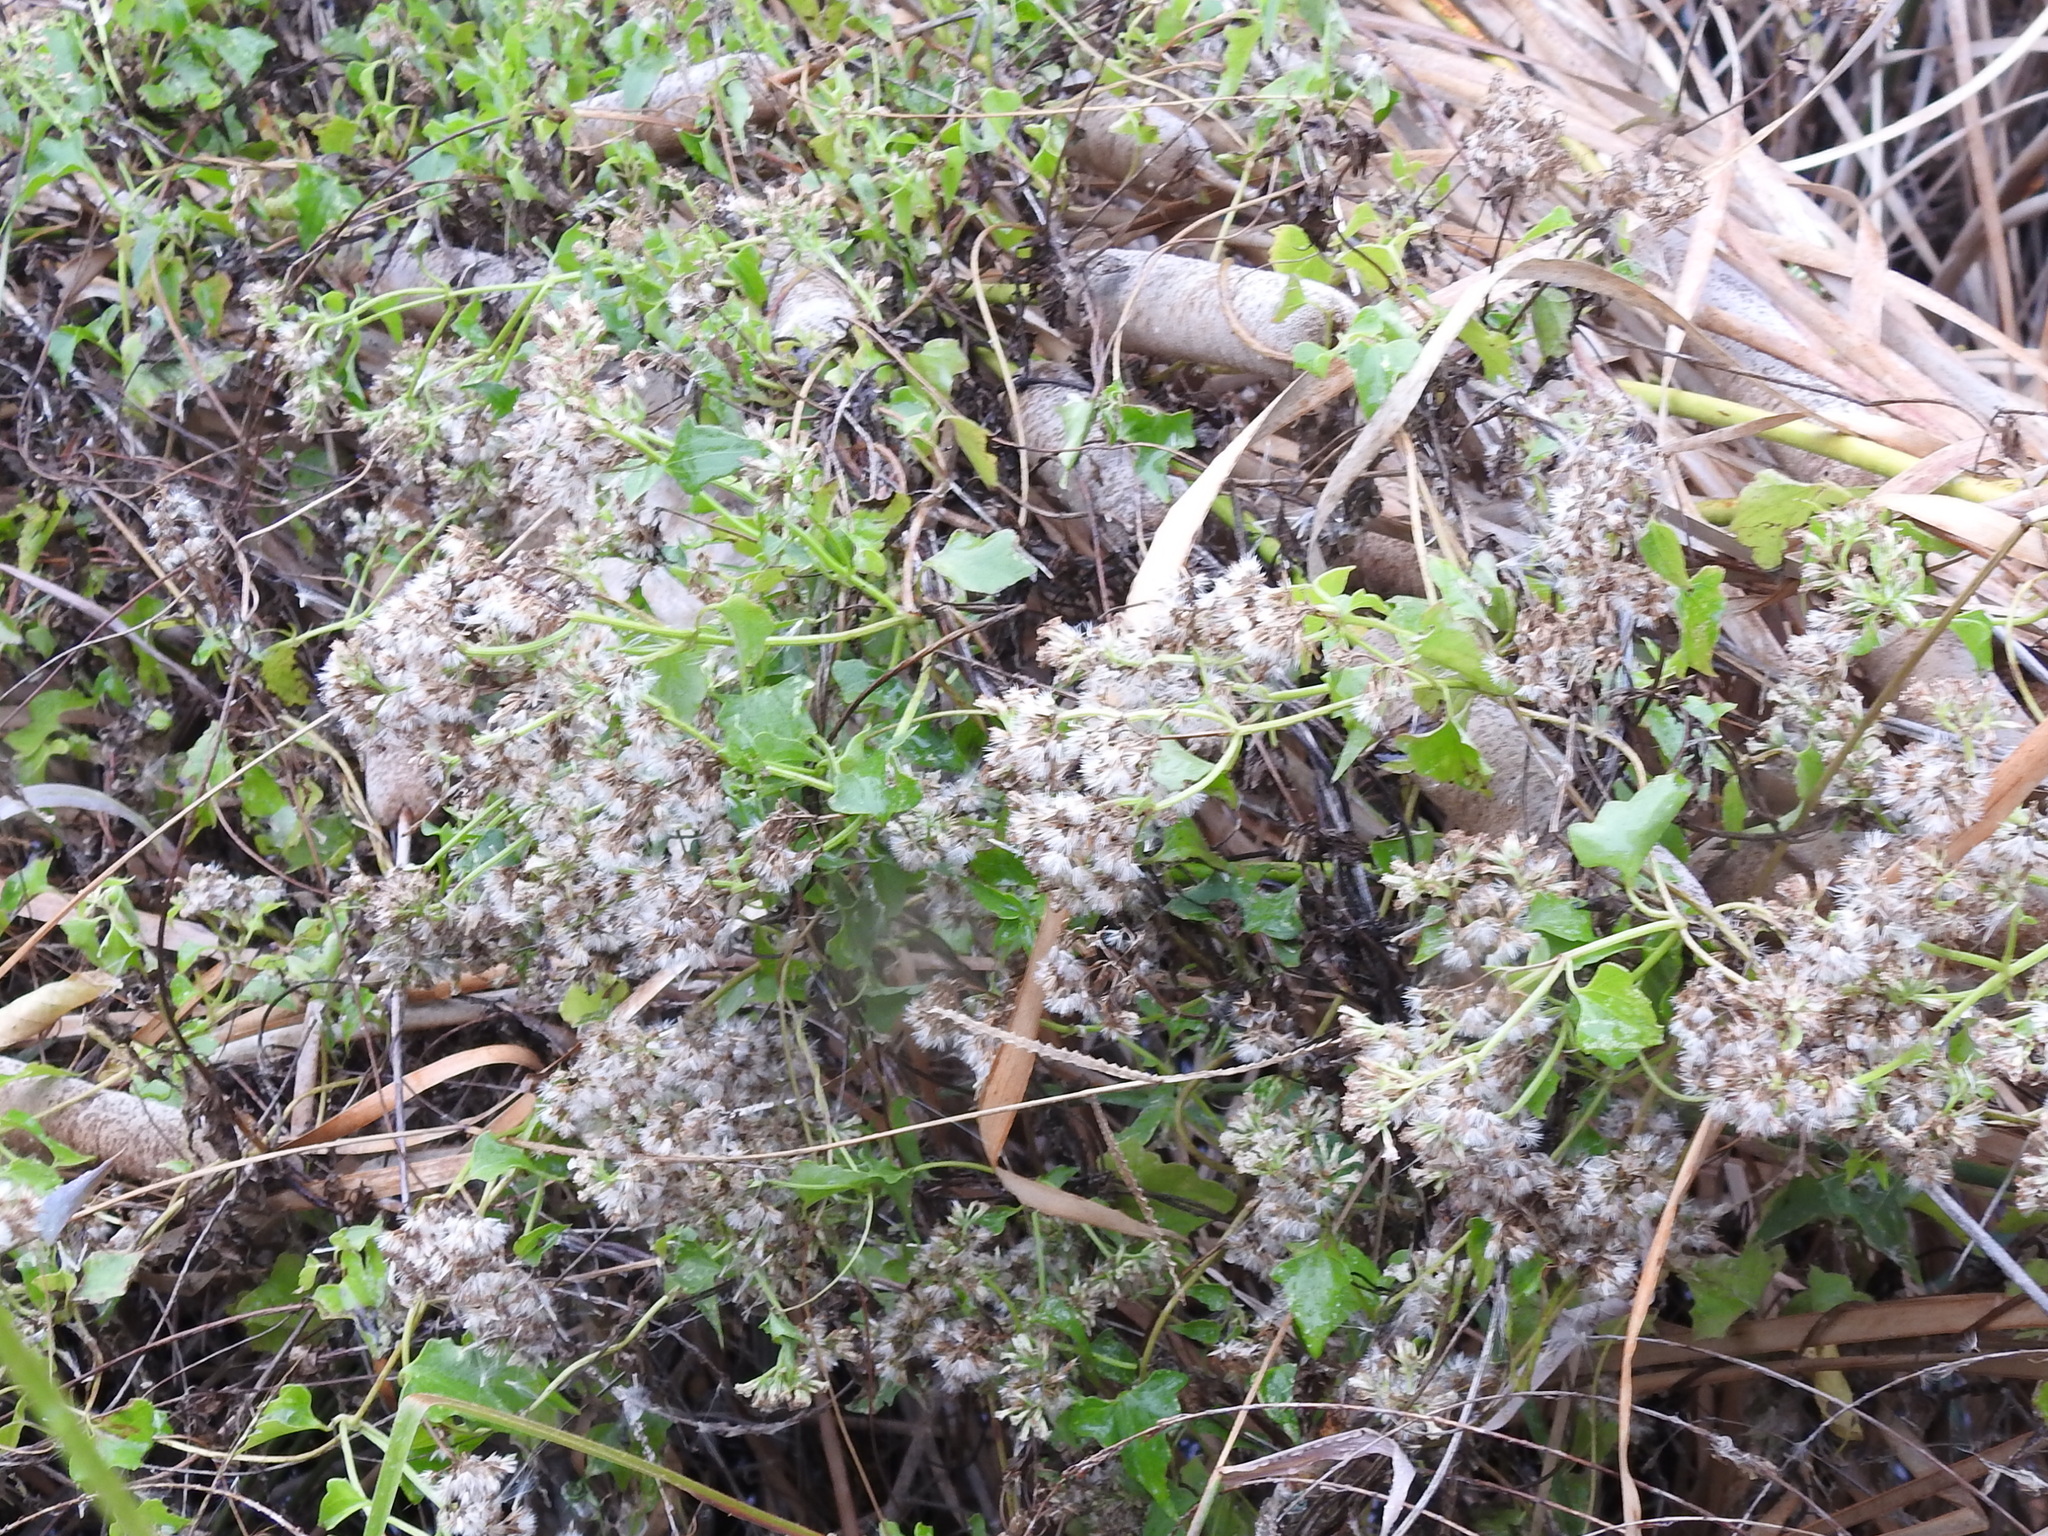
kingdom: Plantae
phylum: Tracheophyta
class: Magnoliopsida
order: Asterales
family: Asteraceae
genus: Mikania
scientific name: Mikania scandens
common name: Climbing hempvine
